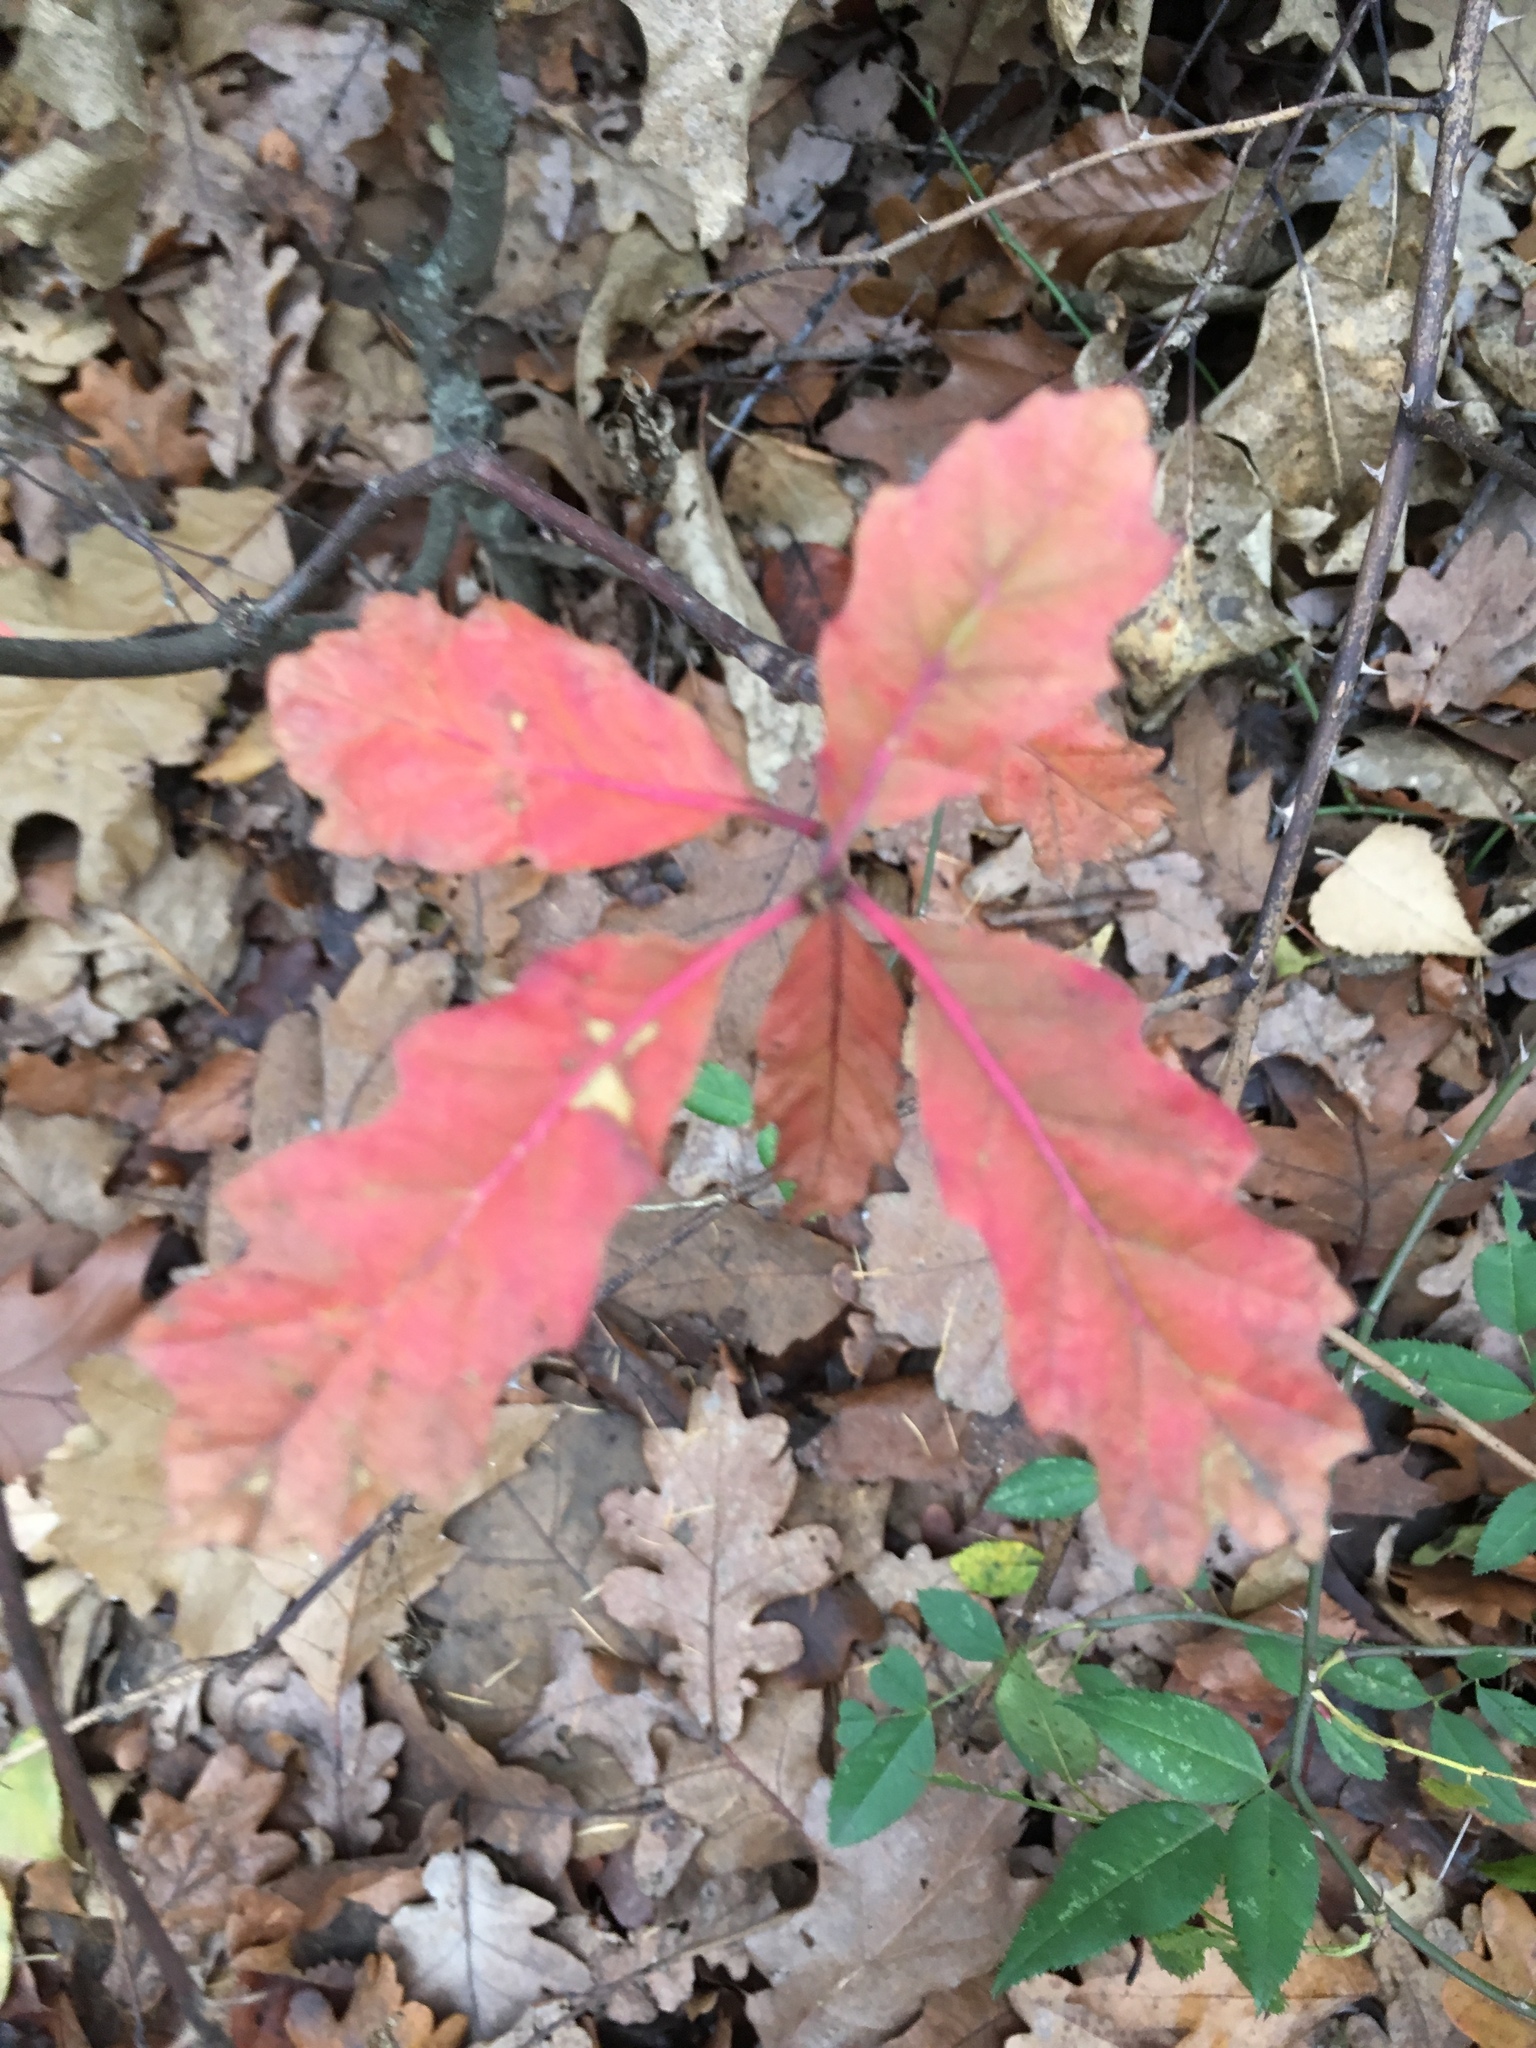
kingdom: Plantae
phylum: Tracheophyta
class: Magnoliopsida
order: Fagales
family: Fagaceae
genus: Quercus
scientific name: Quercus rubra
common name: Red oak
